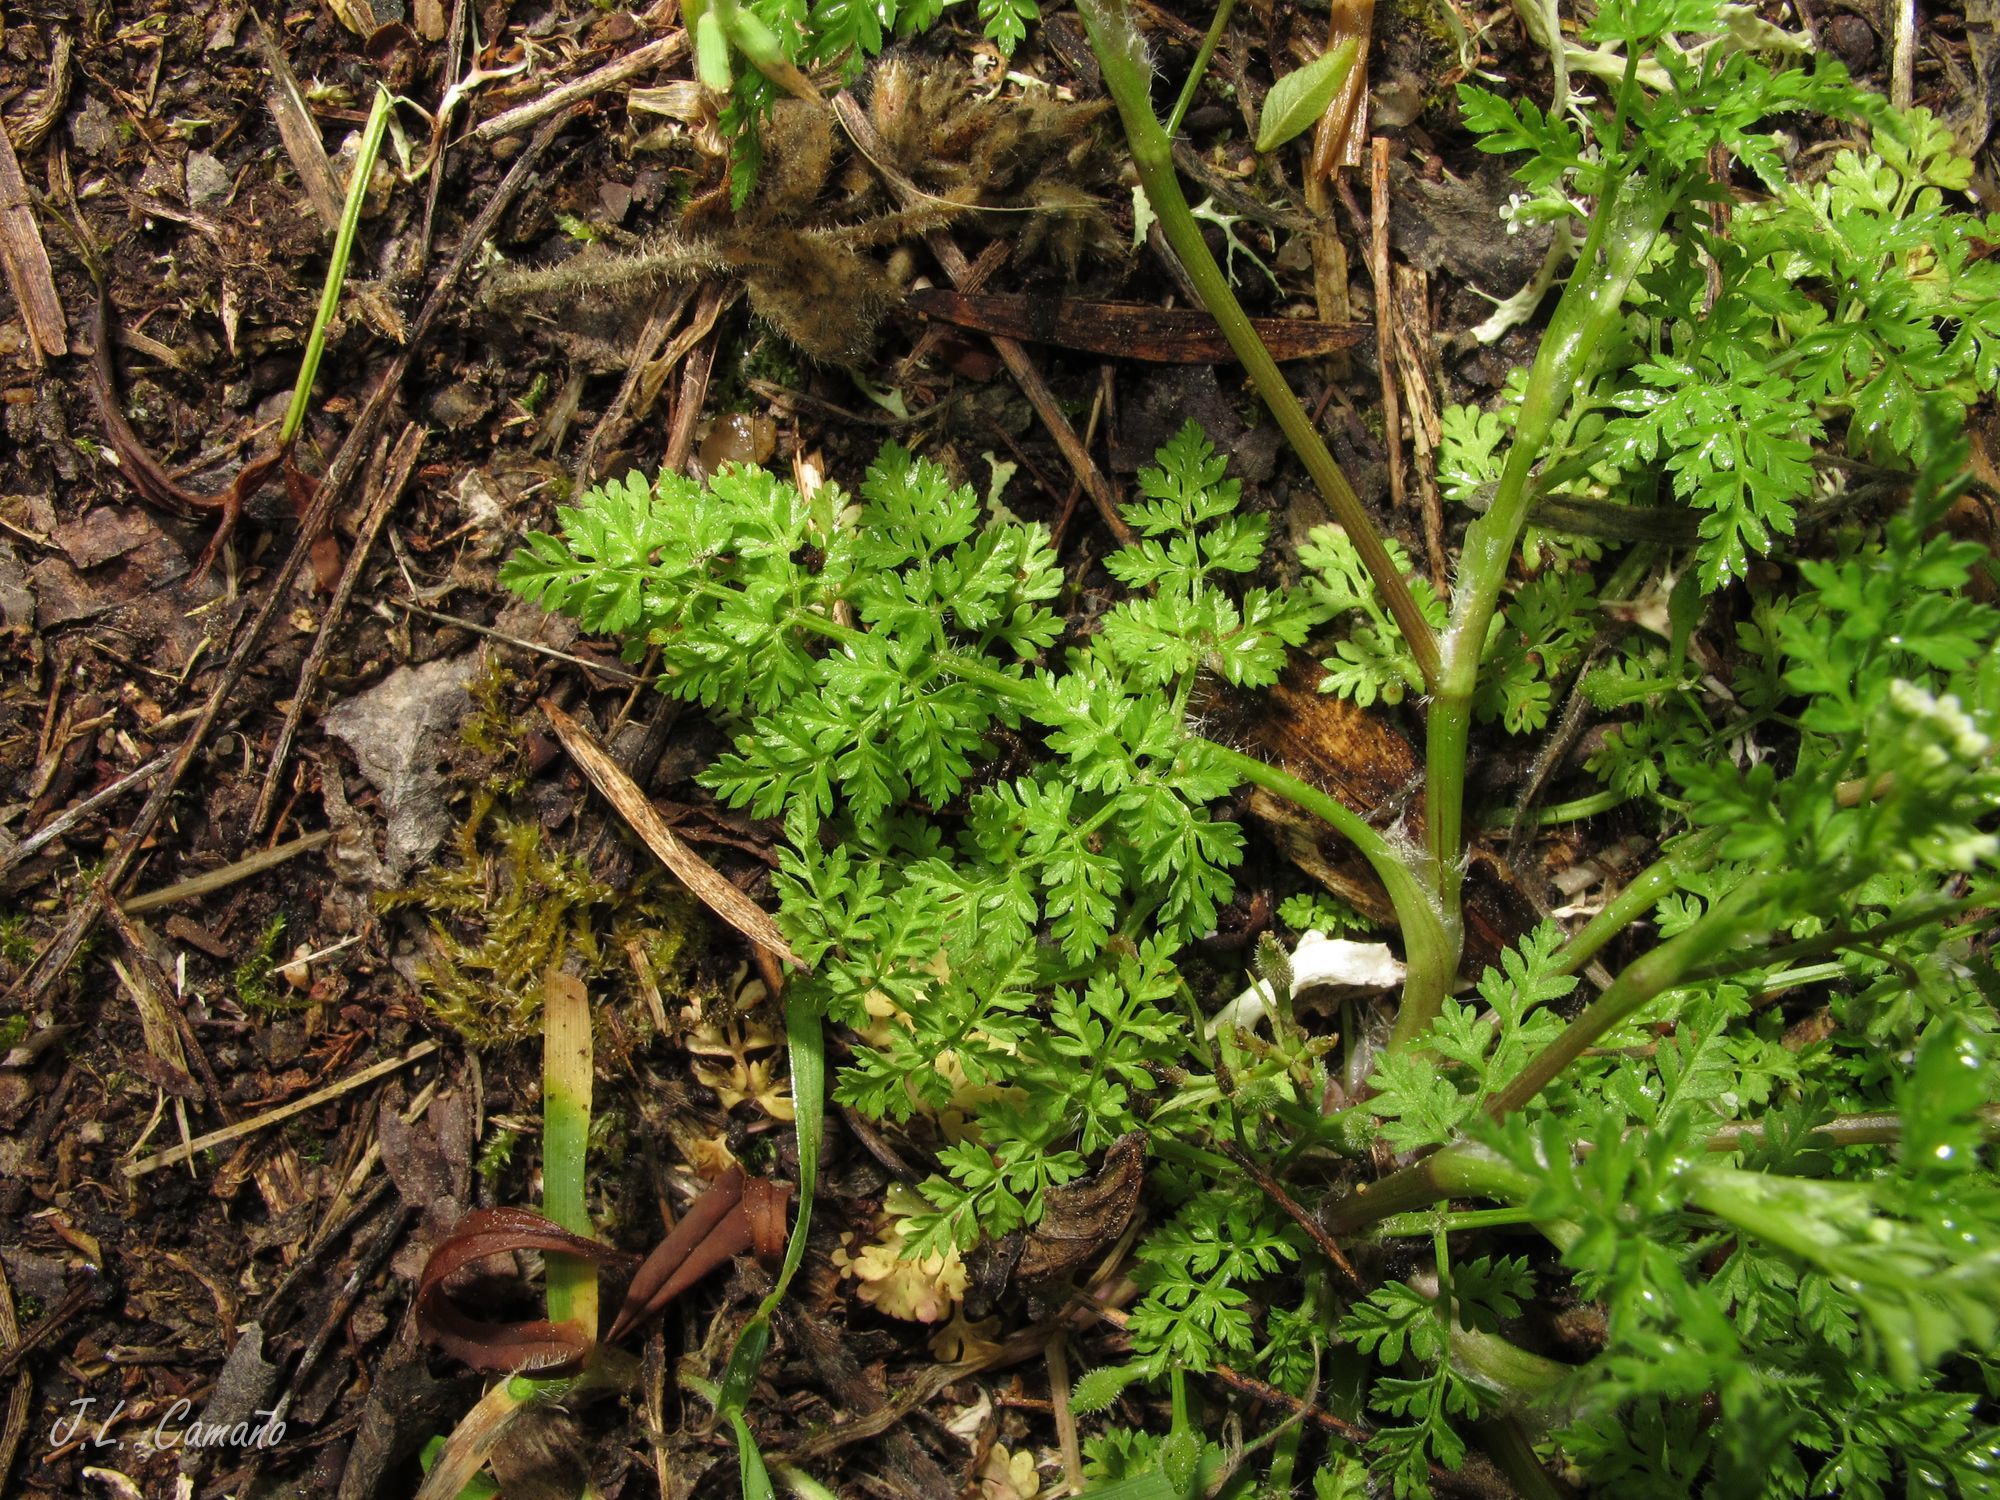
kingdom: Plantae
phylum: Tracheophyta
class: Magnoliopsida
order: Apiales
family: Apiaceae
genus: Anthriscus
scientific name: Anthriscus caucalis
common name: Bur chervil
